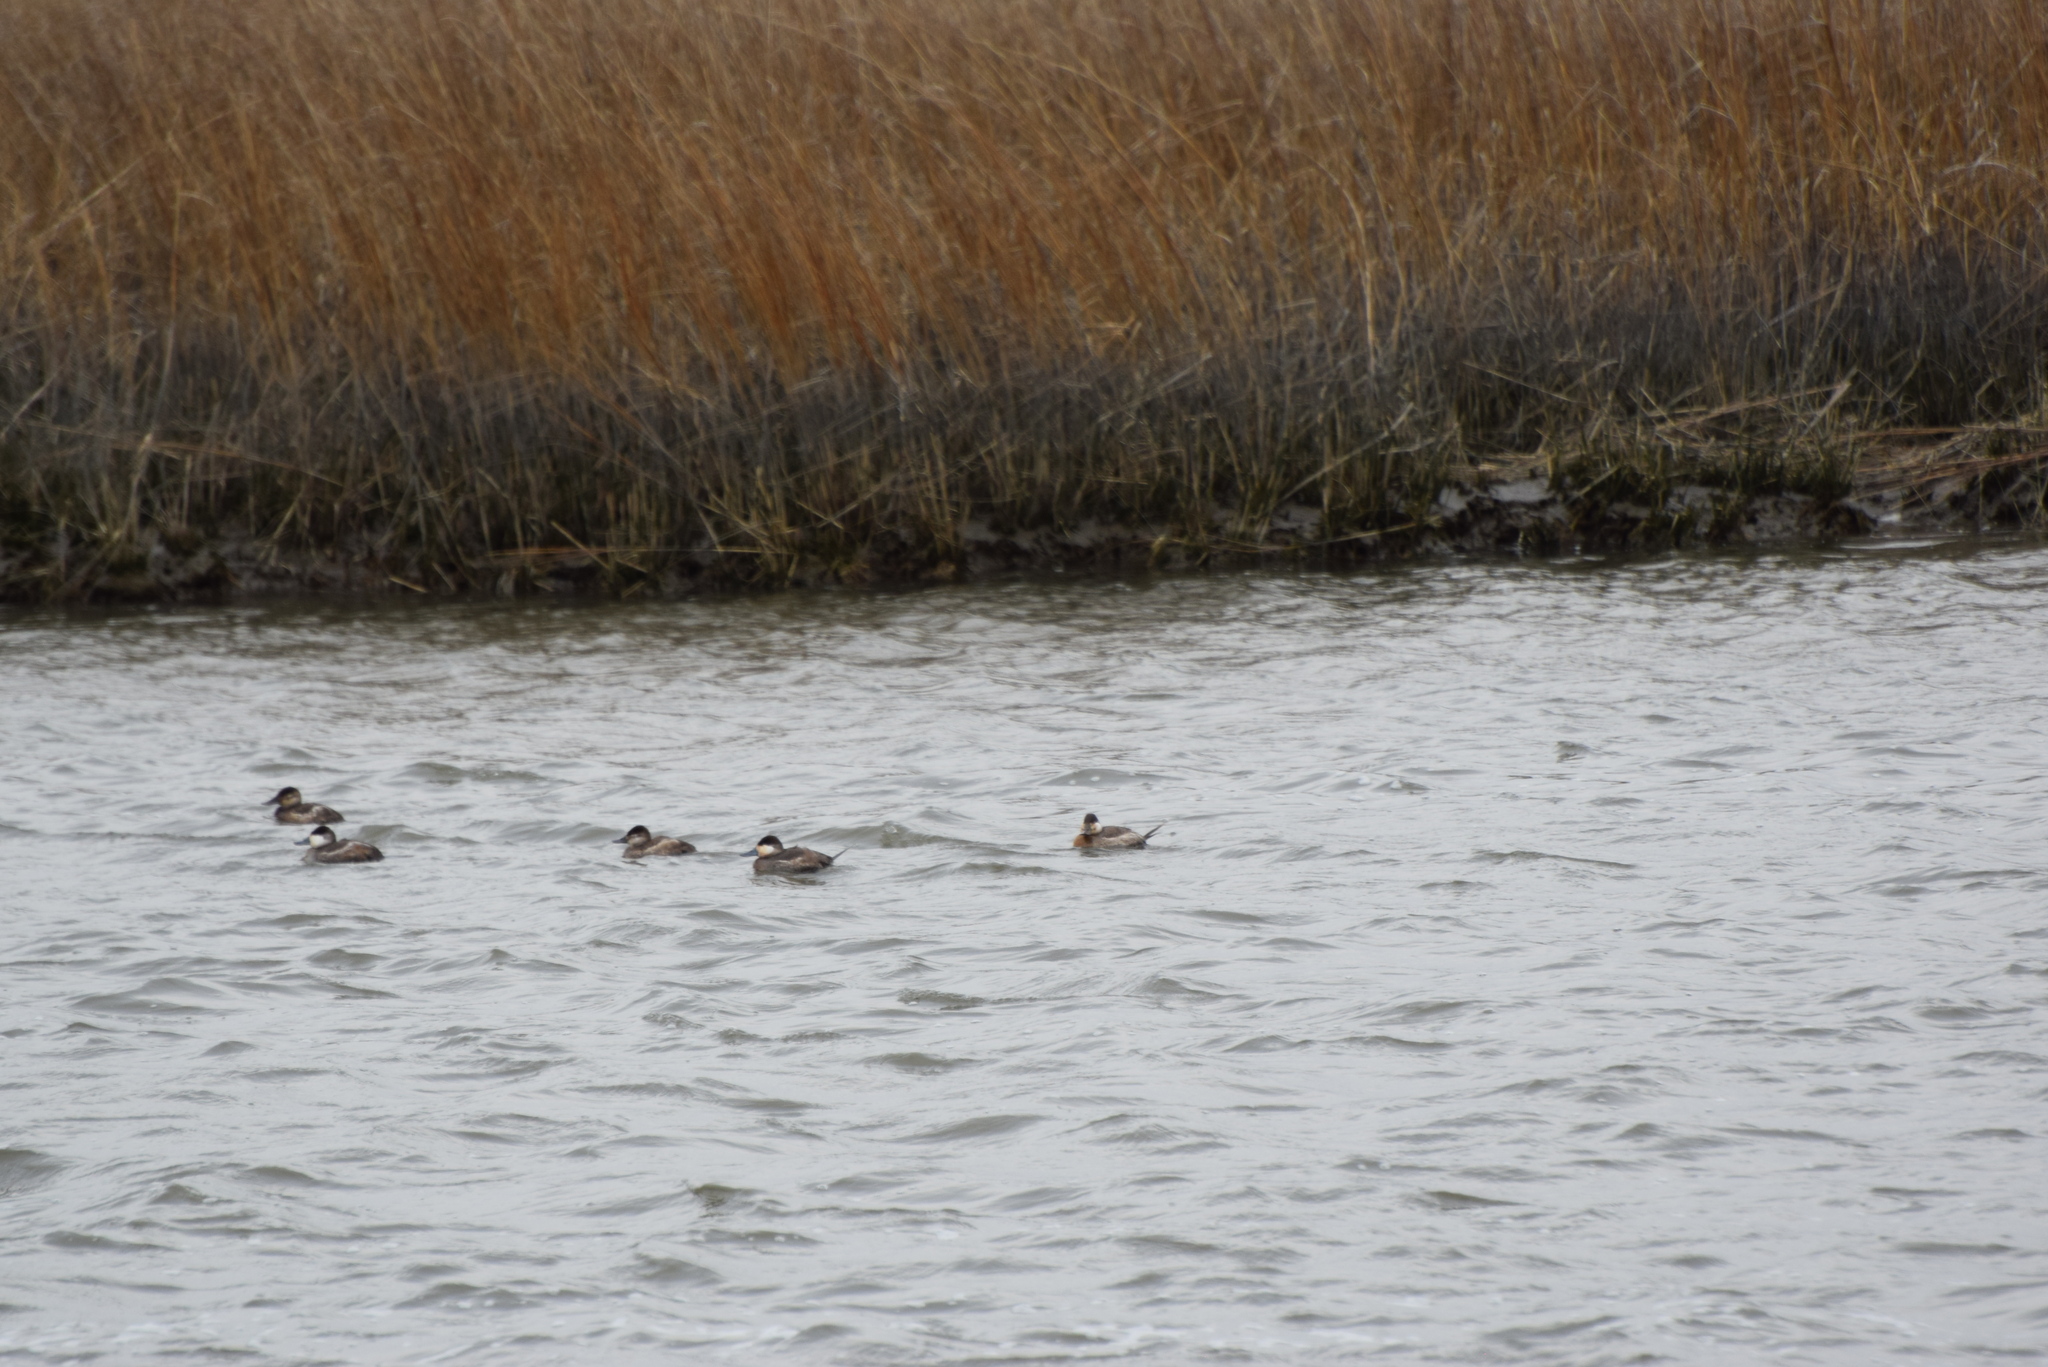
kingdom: Animalia
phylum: Chordata
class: Aves
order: Anseriformes
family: Anatidae
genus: Oxyura
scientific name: Oxyura jamaicensis
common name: Ruddy duck
